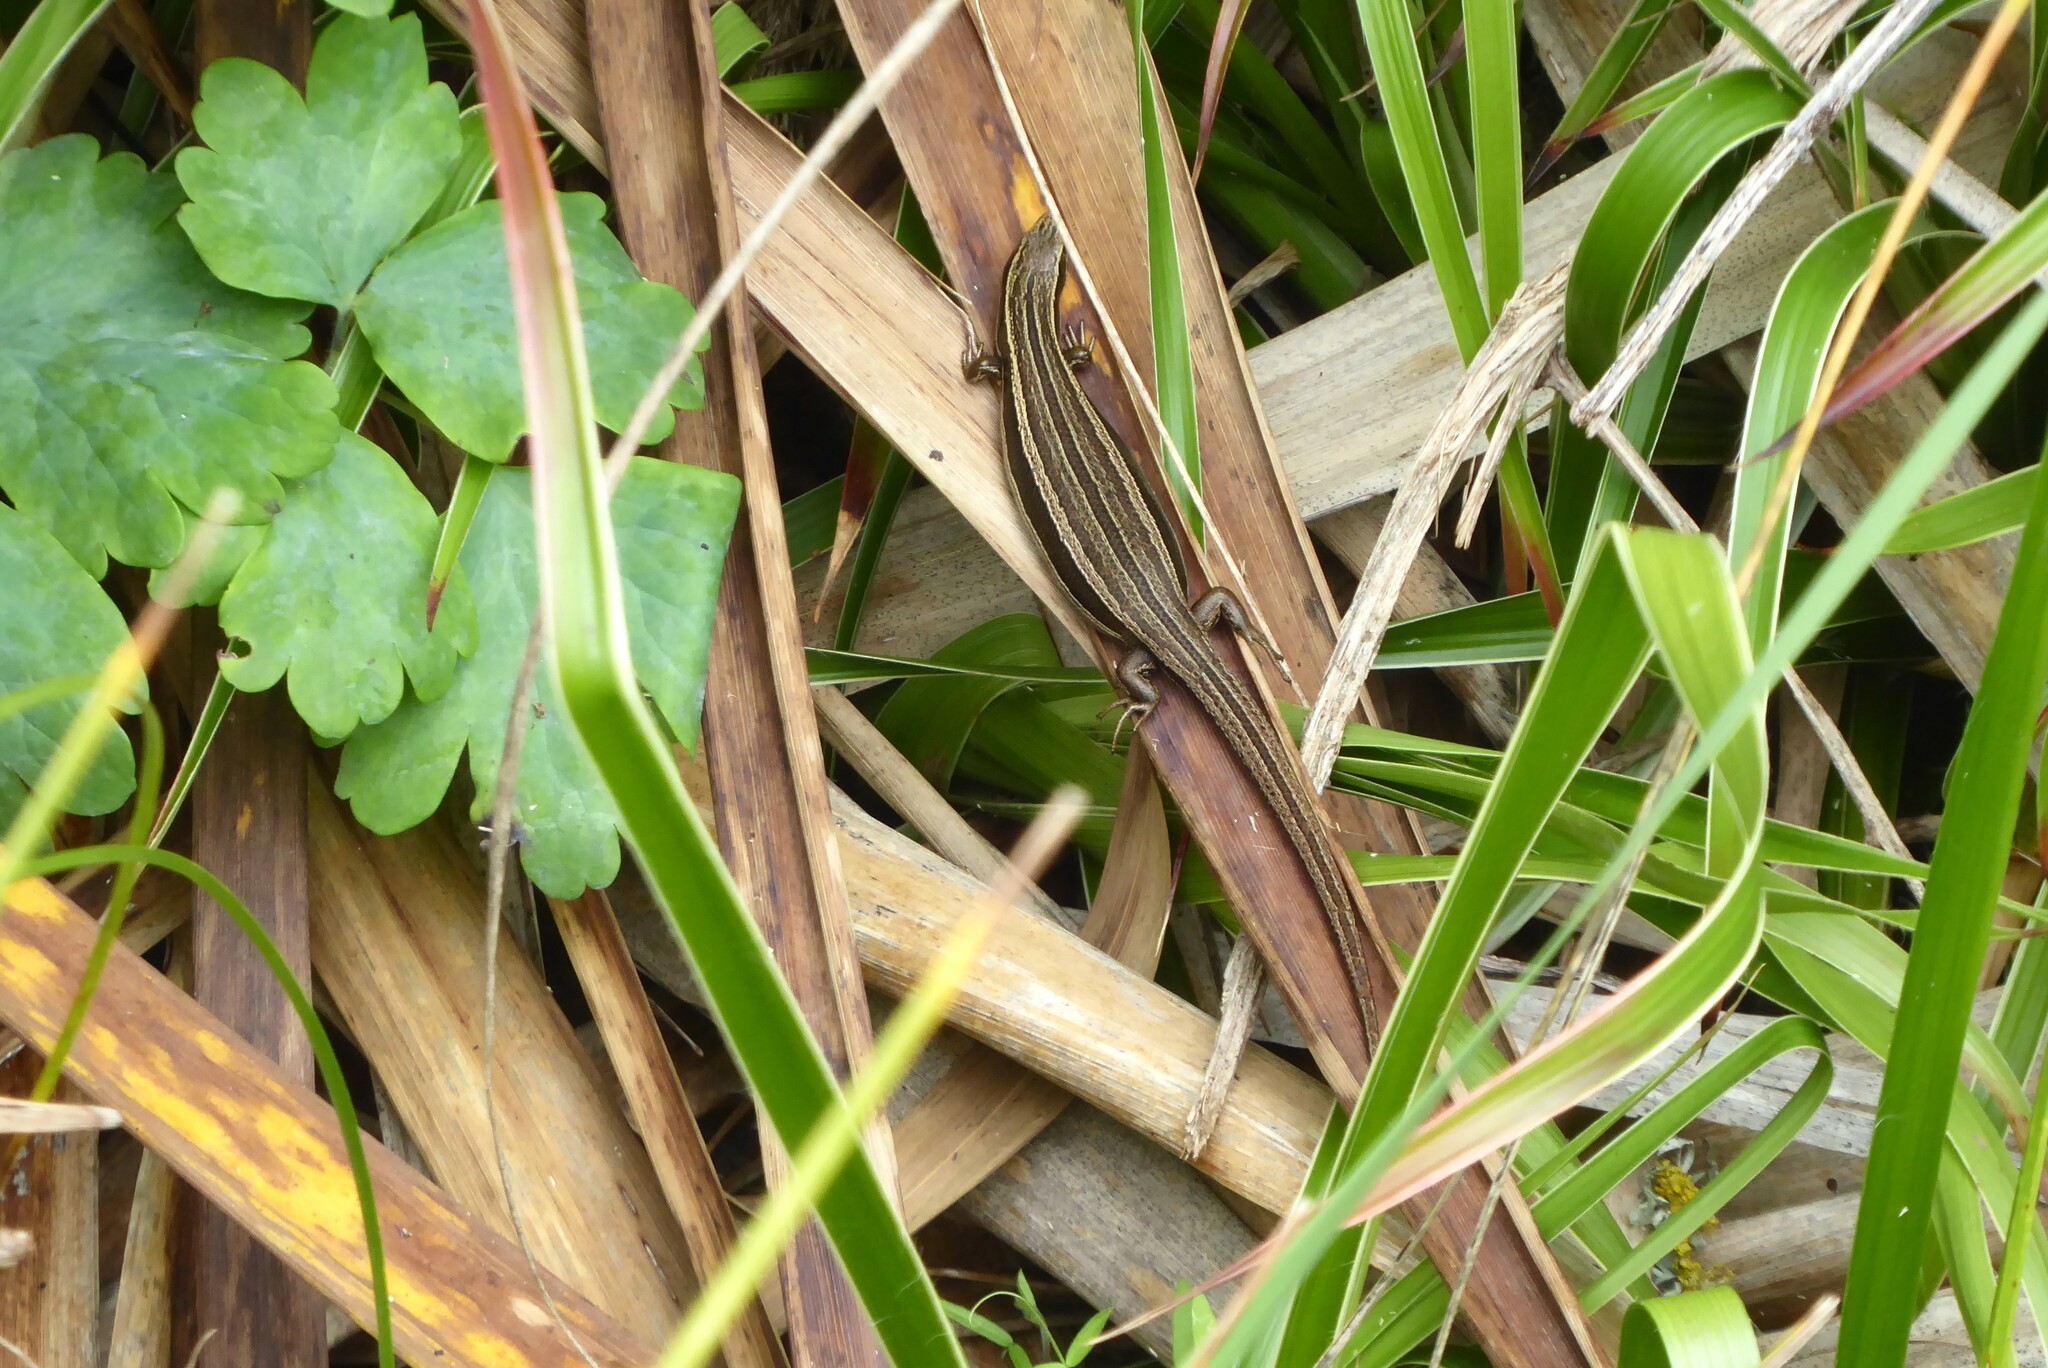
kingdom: Animalia
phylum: Chordata
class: Squamata
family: Scincidae
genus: Oligosoma
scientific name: Oligosoma polychroma
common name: Common new zealand skink
